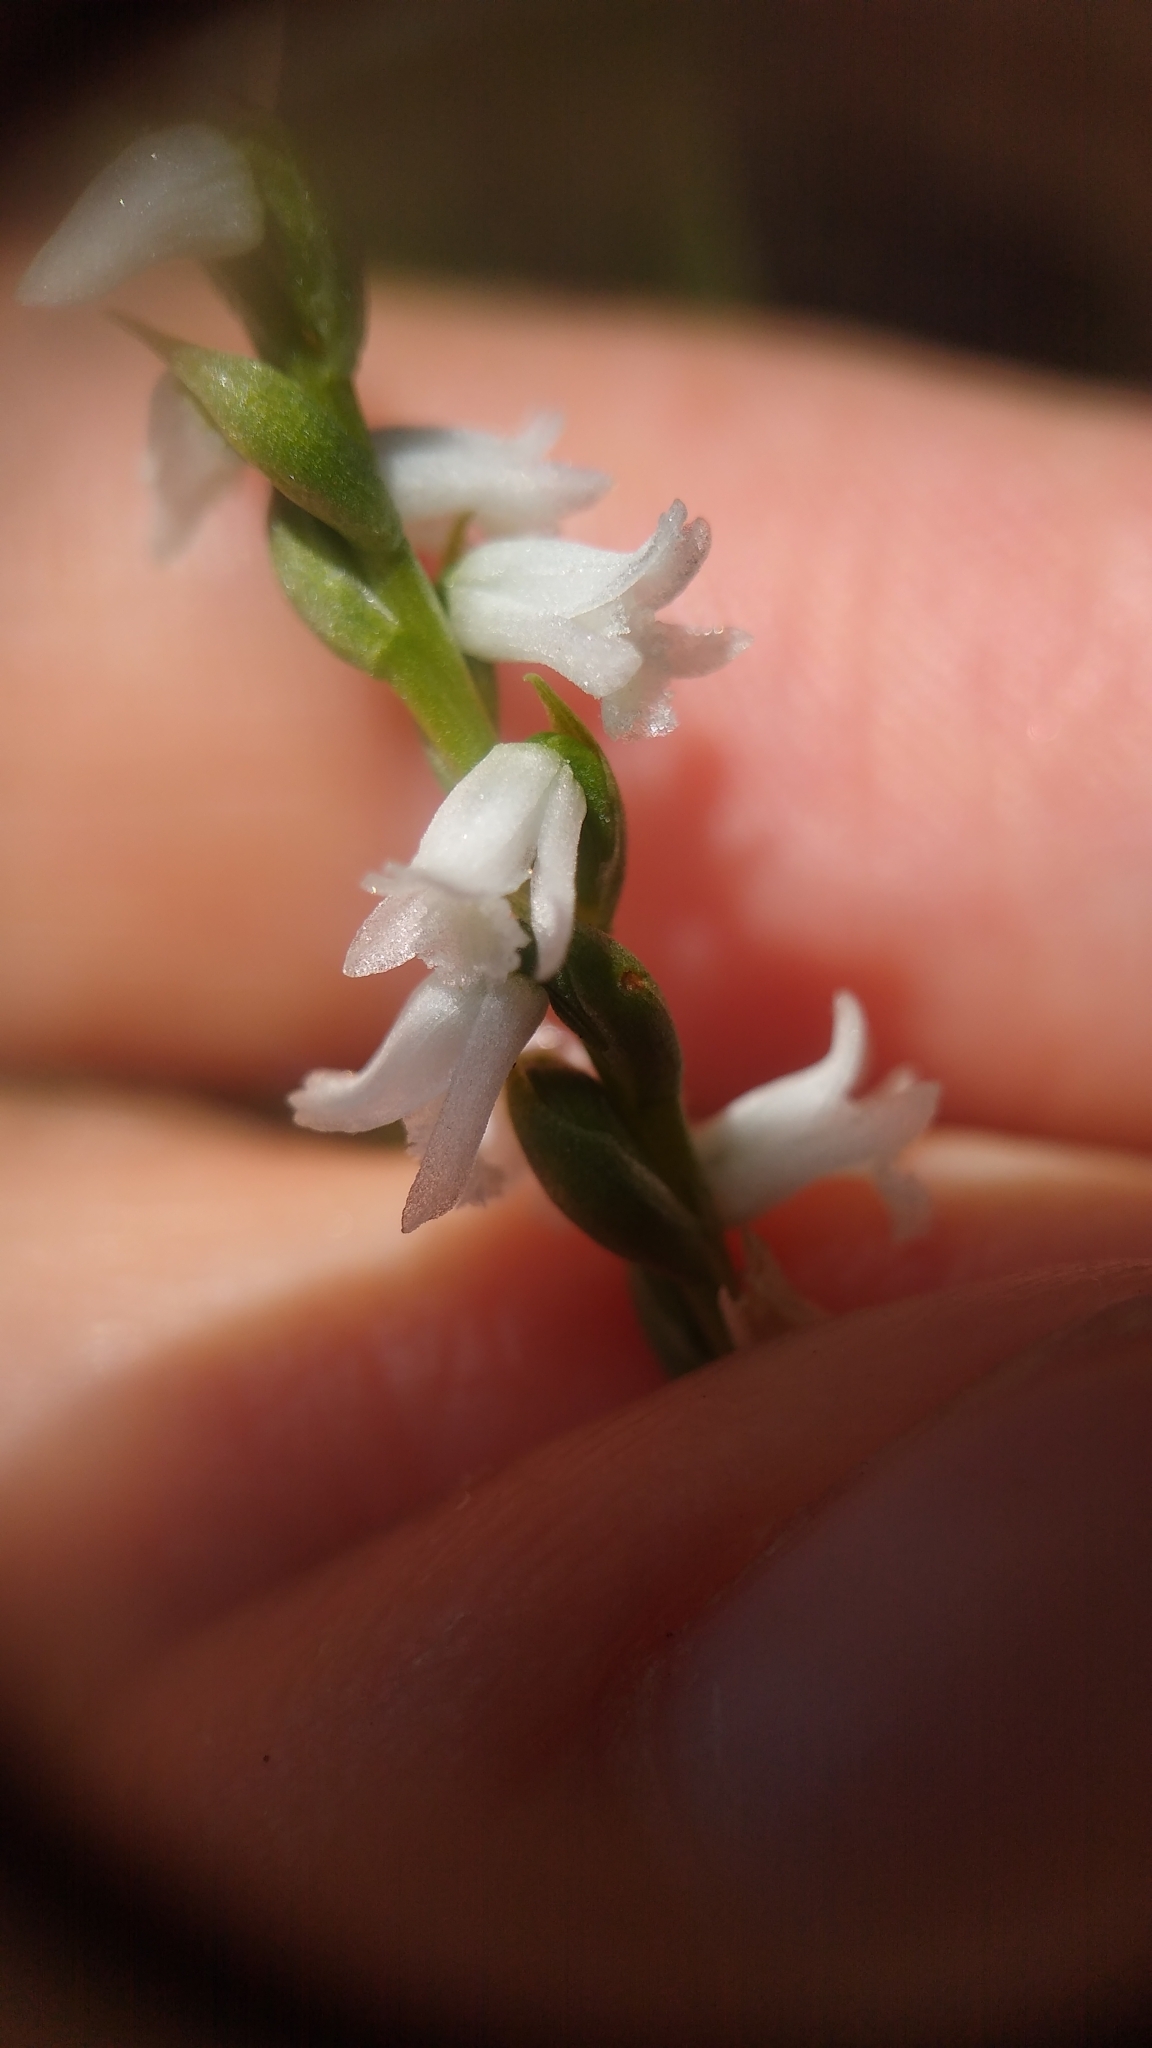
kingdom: Plantae
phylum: Tracheophyta
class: Liliopsida
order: Asparagales
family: Orchidaceae
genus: Spiranthes
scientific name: Spiranthes tuberosa
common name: Little ladies'-tresses
